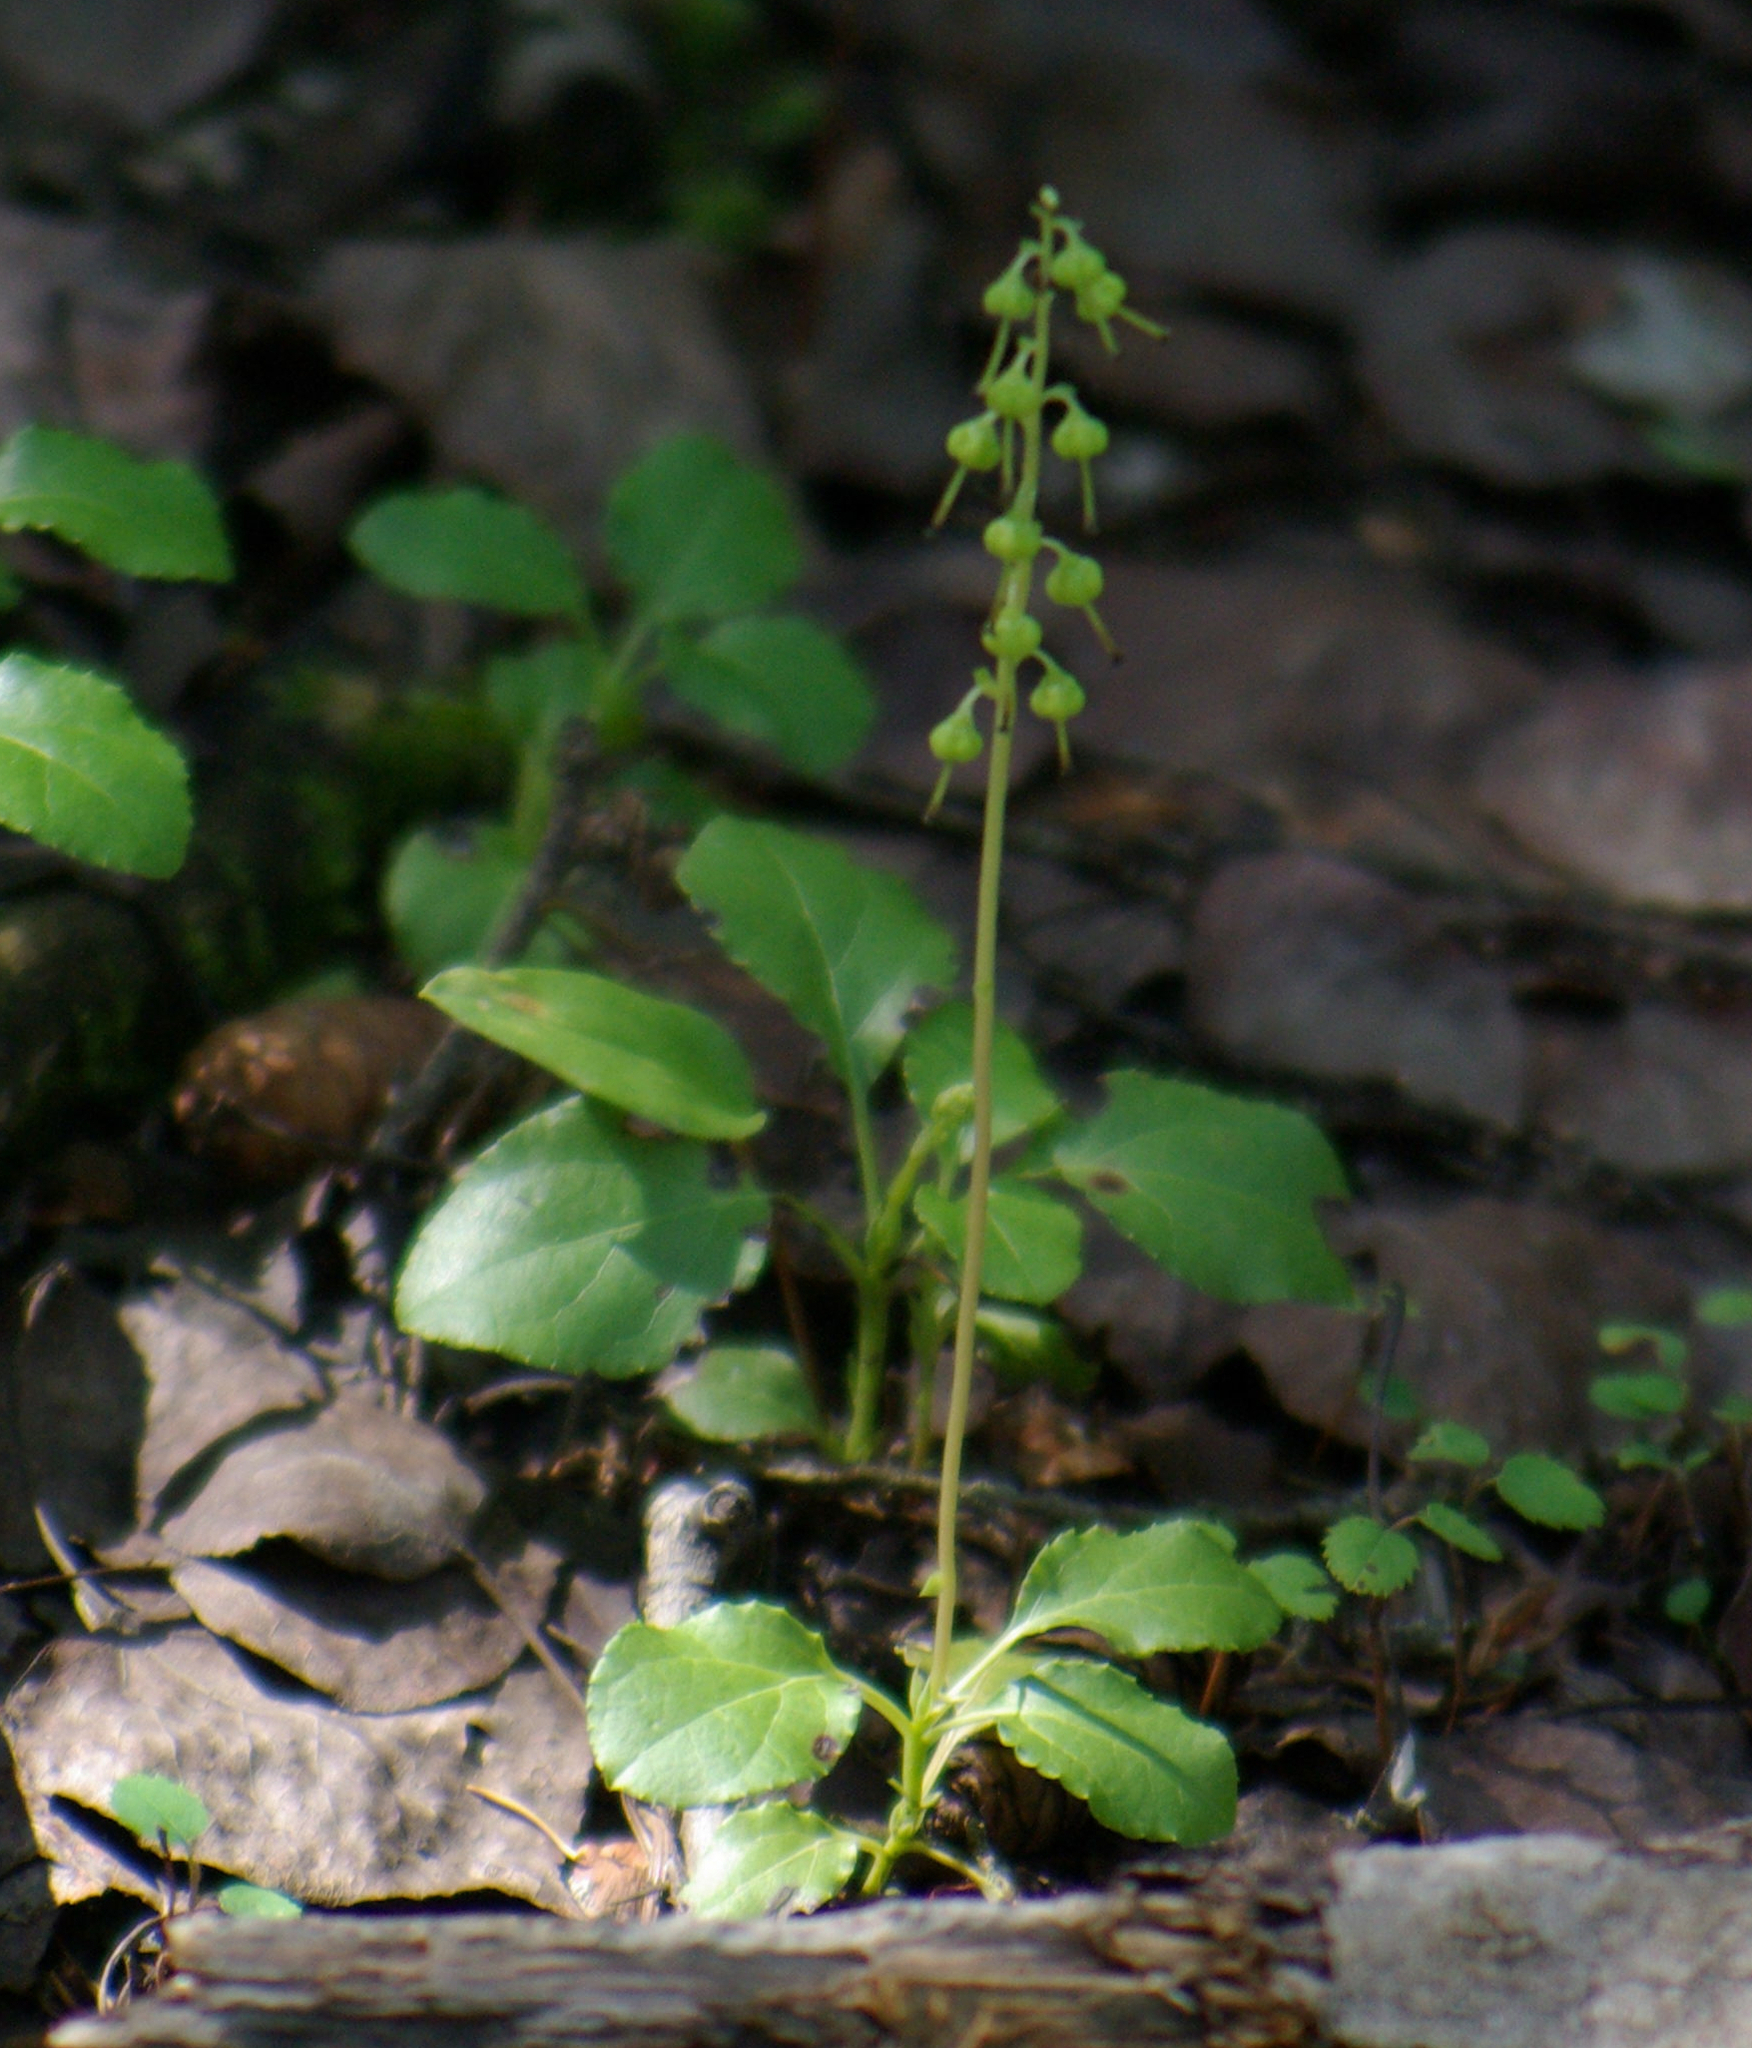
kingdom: Plantae
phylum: Tracheophyta
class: Magnoliopsida
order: Ericales
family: Ericaceae
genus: Orthilia
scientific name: Orthilia secunda
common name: One-sided orthilia
